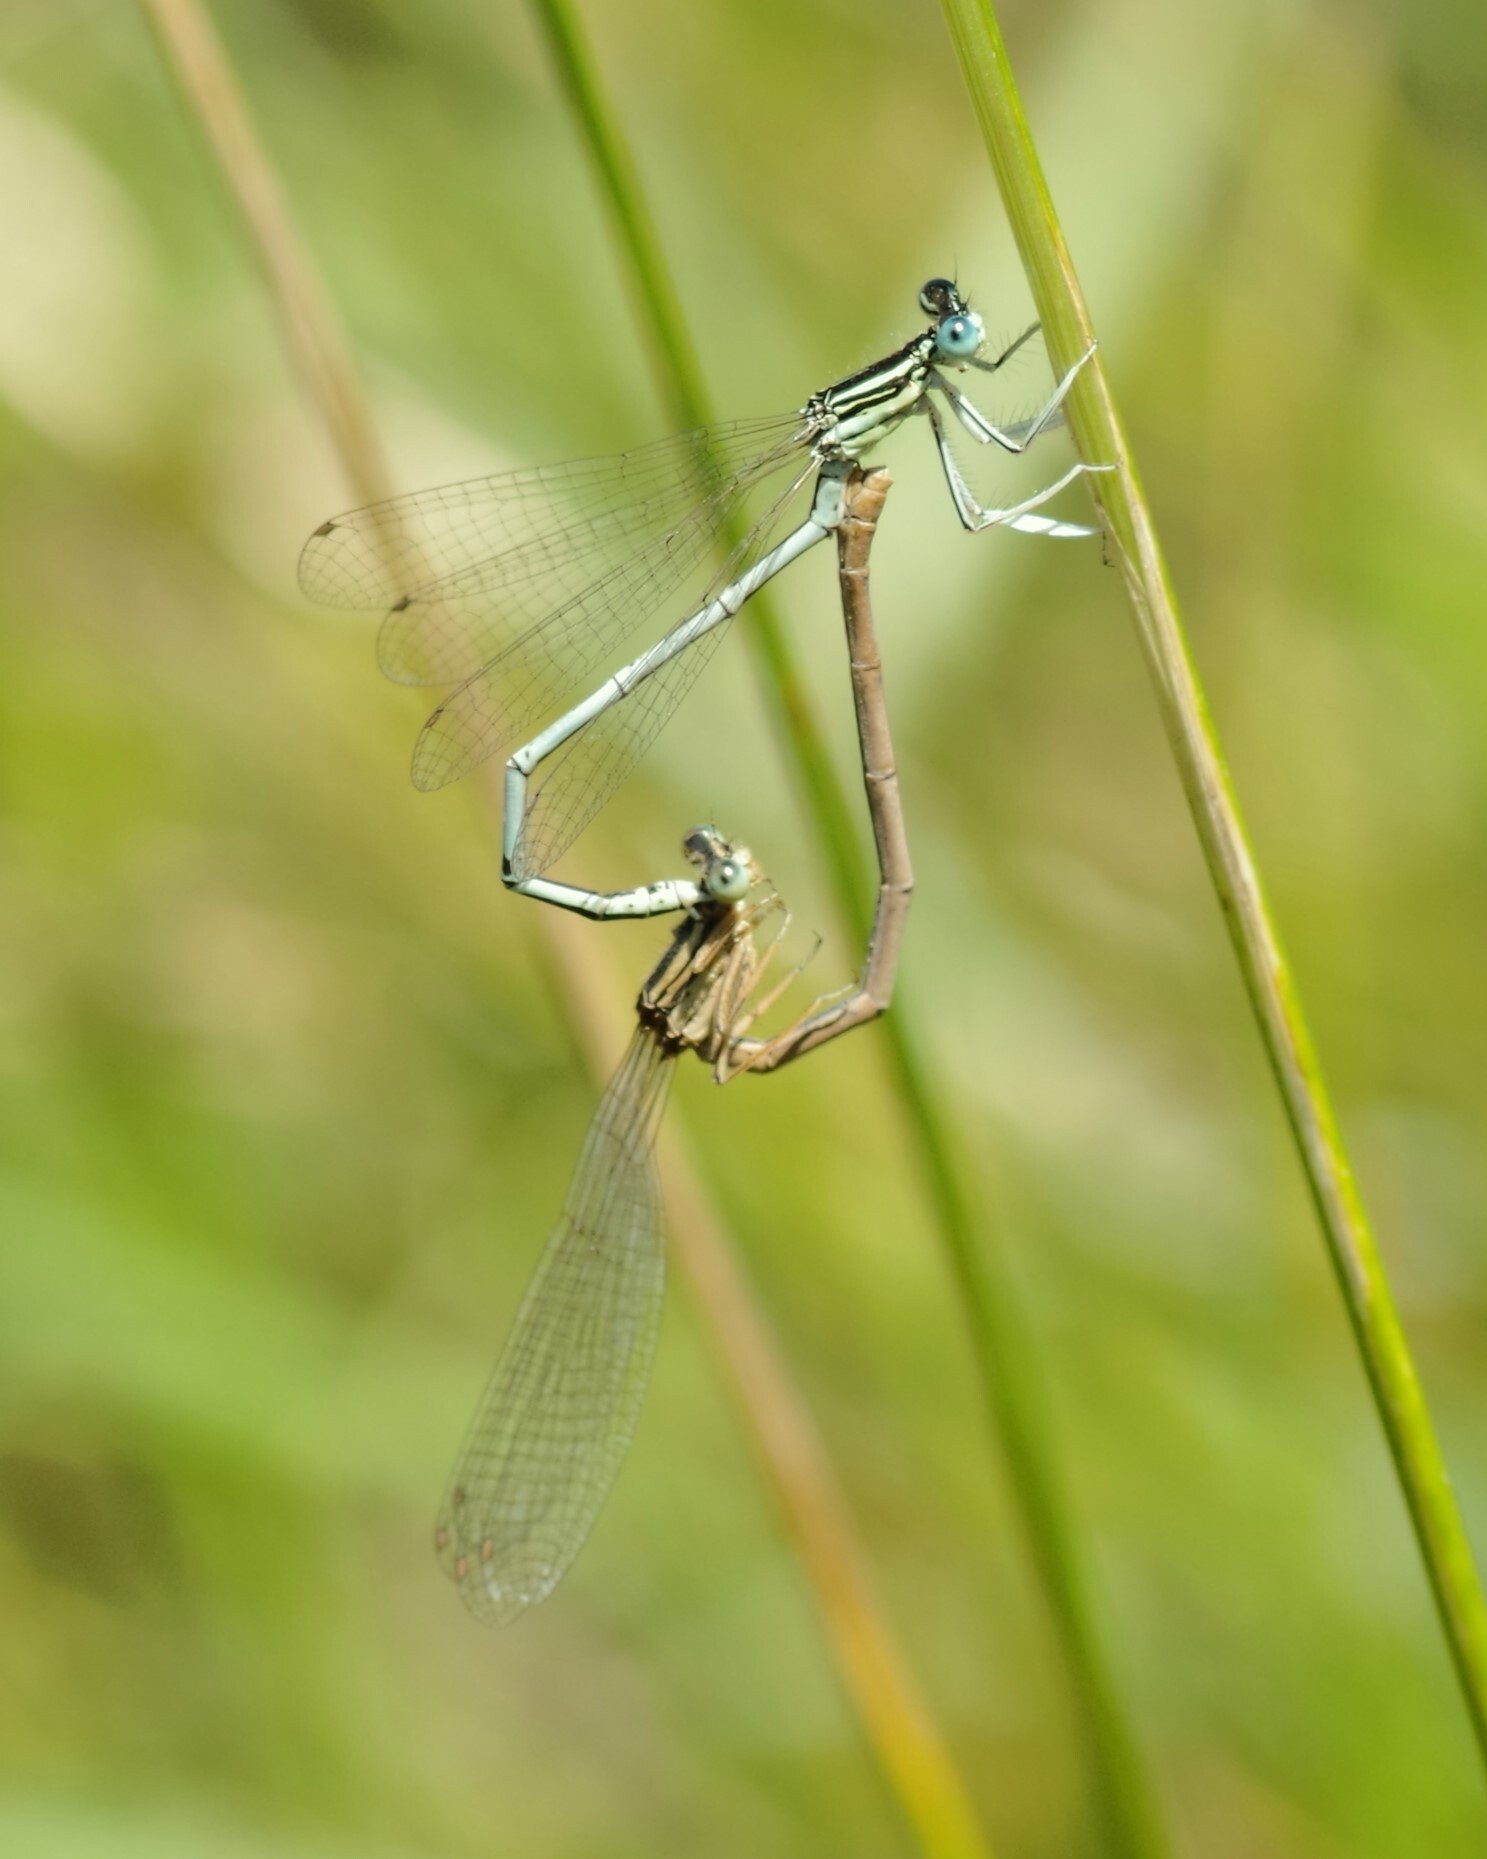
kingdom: Animalia
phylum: Arthropoda
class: Insecta
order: Odonata
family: Platycnemididae
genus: Platycnemis
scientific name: Platycnemis latipes
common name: White featherleg
